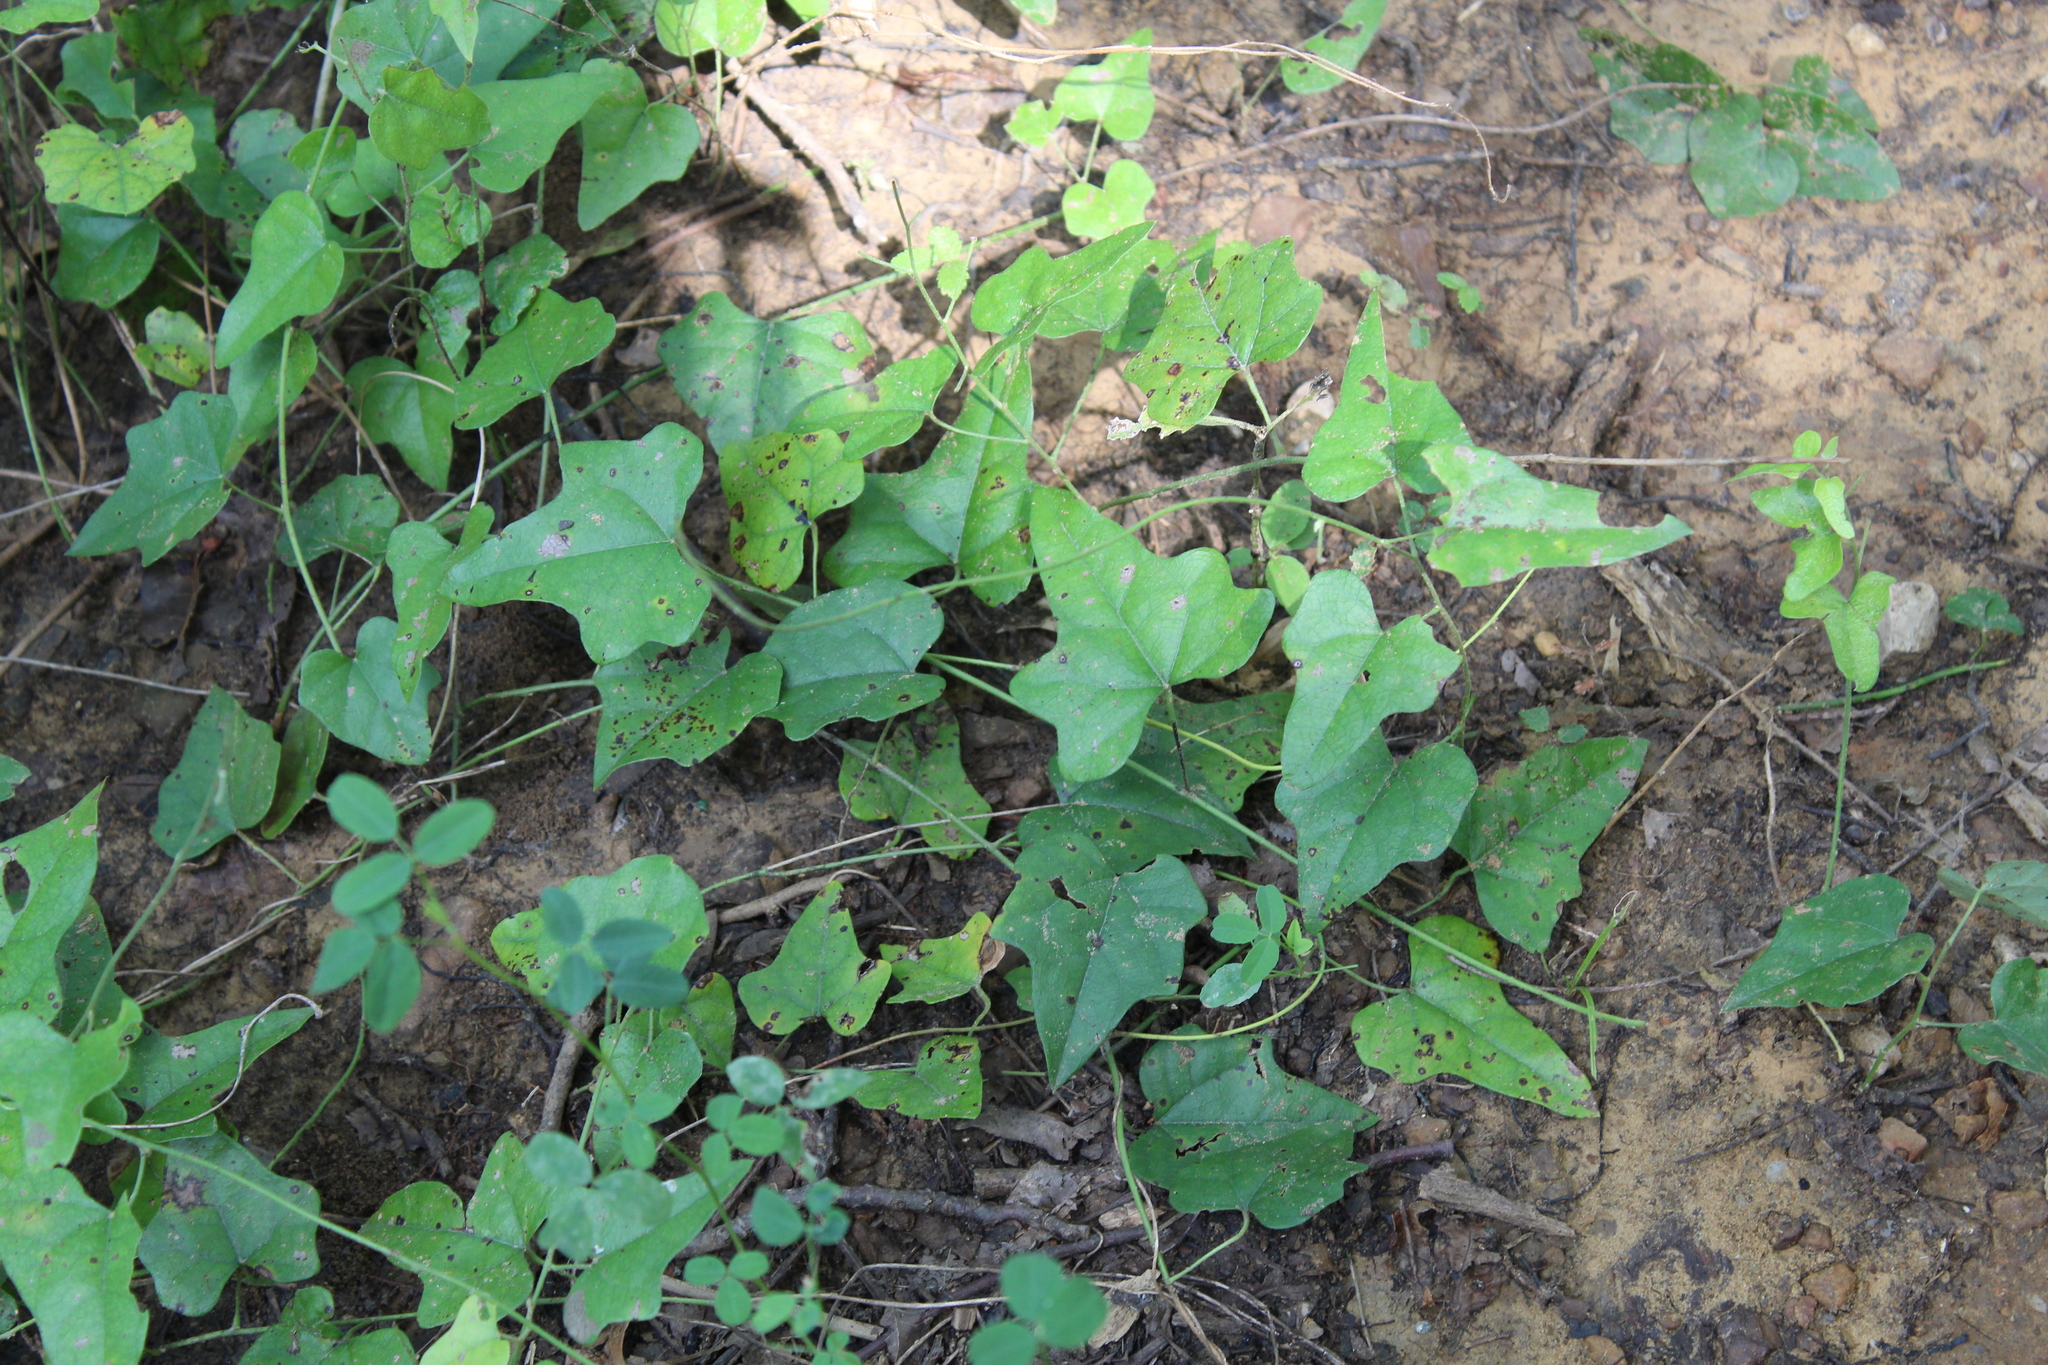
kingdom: Plantae
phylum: Tracheophyta
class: Magnoliopsida
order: Ranunculales
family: Menispermaceae
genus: Cocculus
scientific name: Cocculus carolinus
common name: Carolina moonseed
